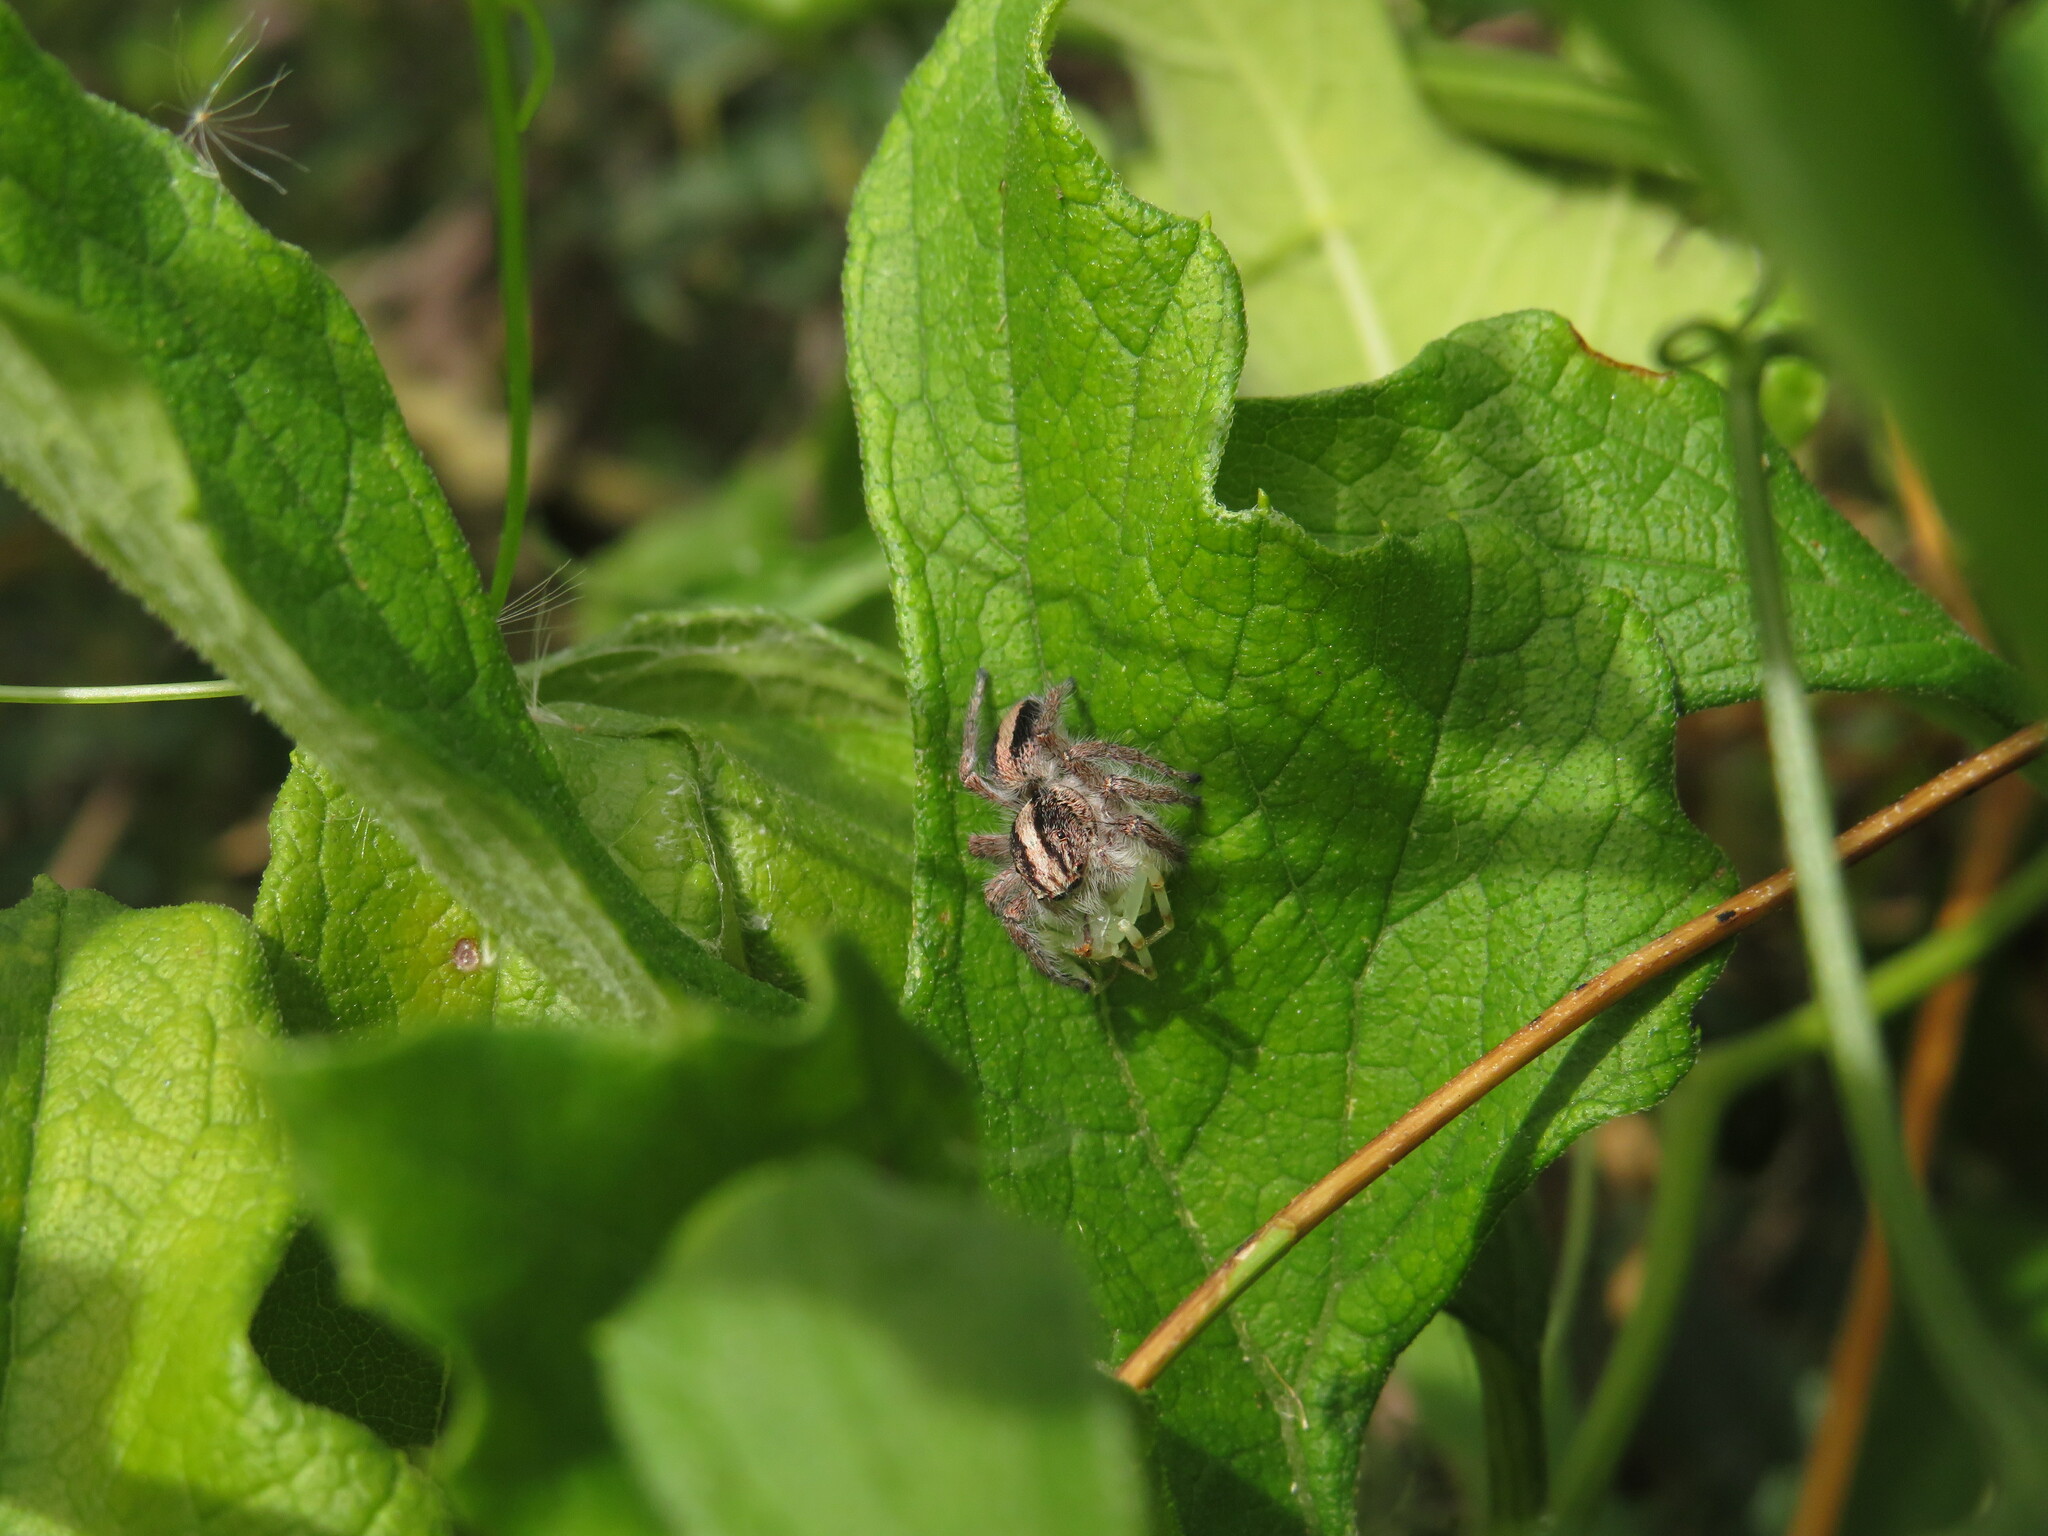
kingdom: Animalia
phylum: Arthropoda
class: Arachnida
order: Araneae
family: Salticidae
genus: Megafreya
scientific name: Megafreya sutrix
